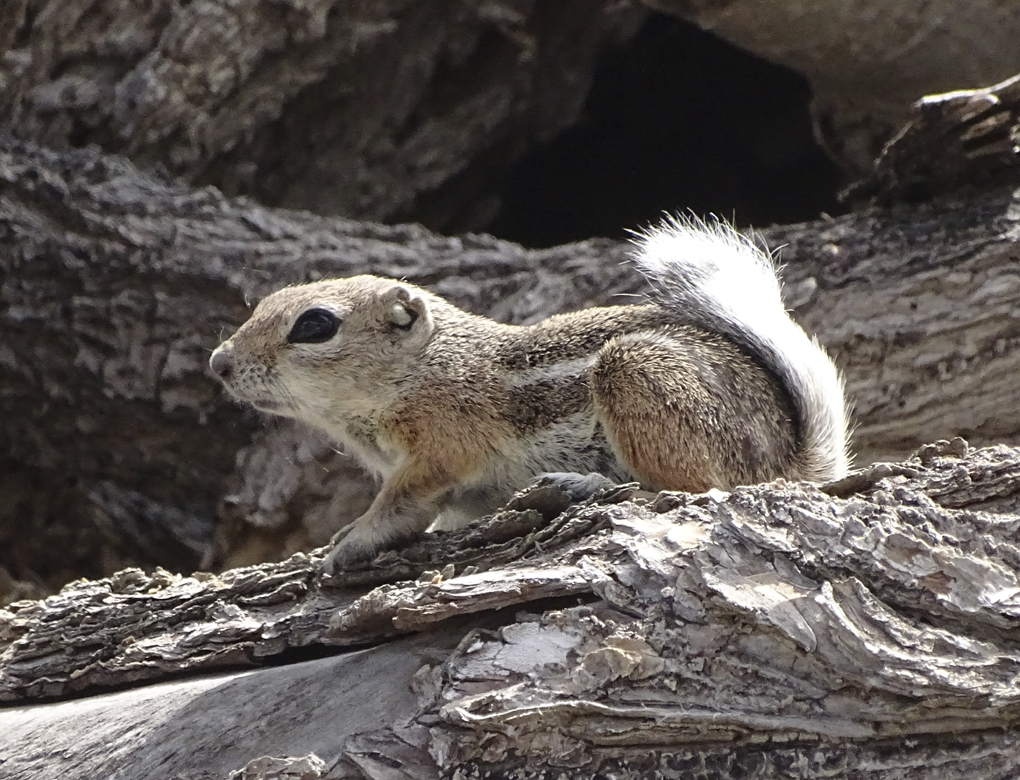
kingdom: Animalia
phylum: Chordata
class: Mammalia
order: Rodentia
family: Sciuridae
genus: Ammospermophilus
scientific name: Ammospermophilus leucurus
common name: White-tailed antelope squirrel
